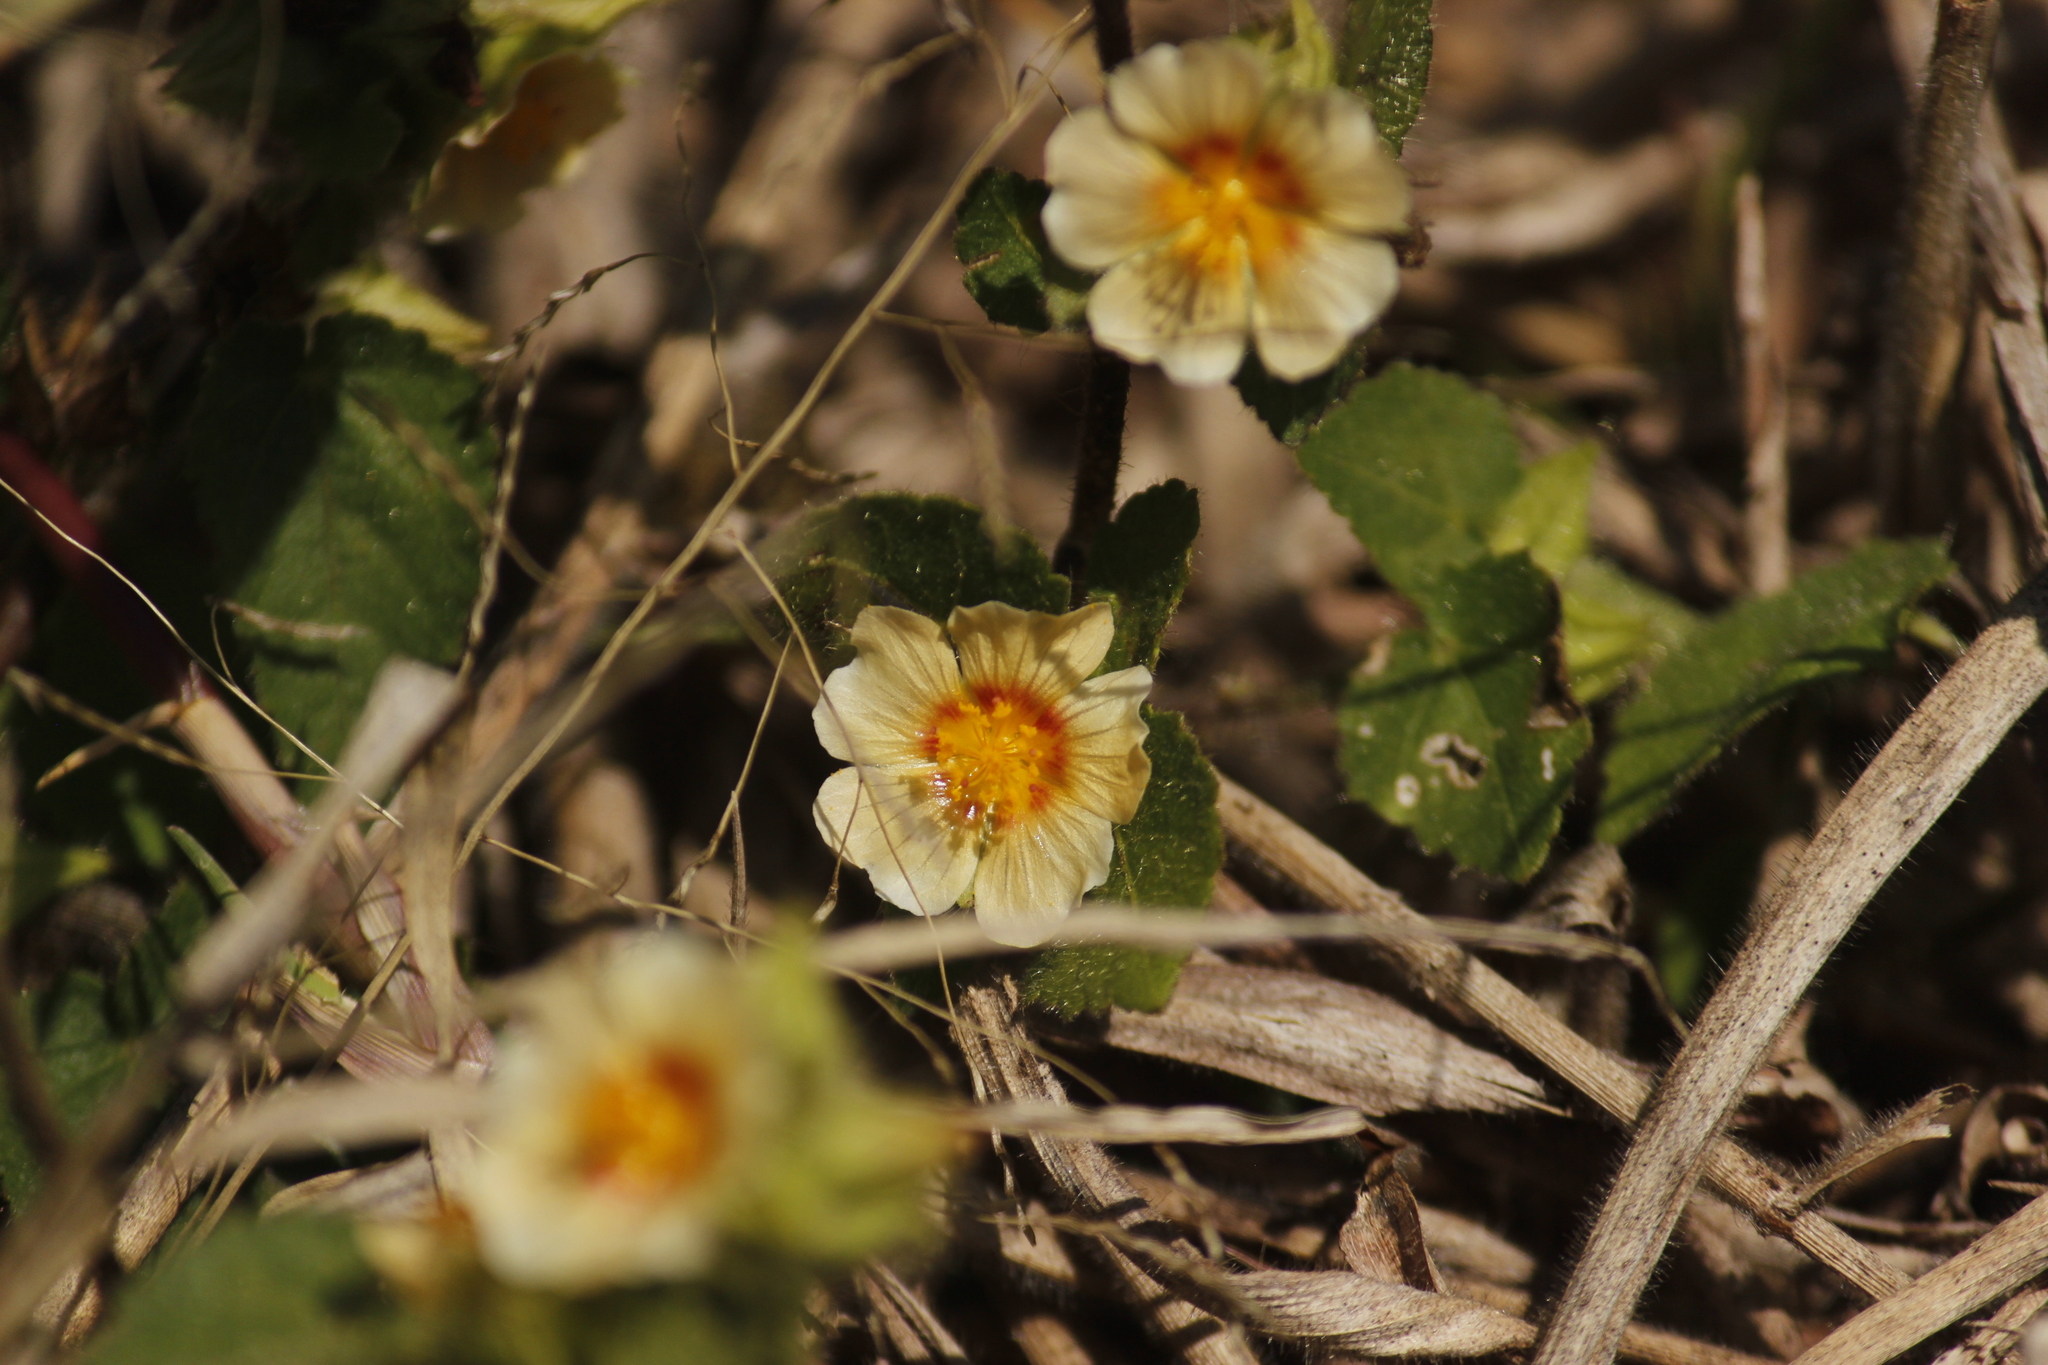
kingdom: Plantae
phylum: Tracheophyta
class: Magnoliopsida
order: Malvales
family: Malvaceae
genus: Sida
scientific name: Sida spinosa
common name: Prickly fanpetals
